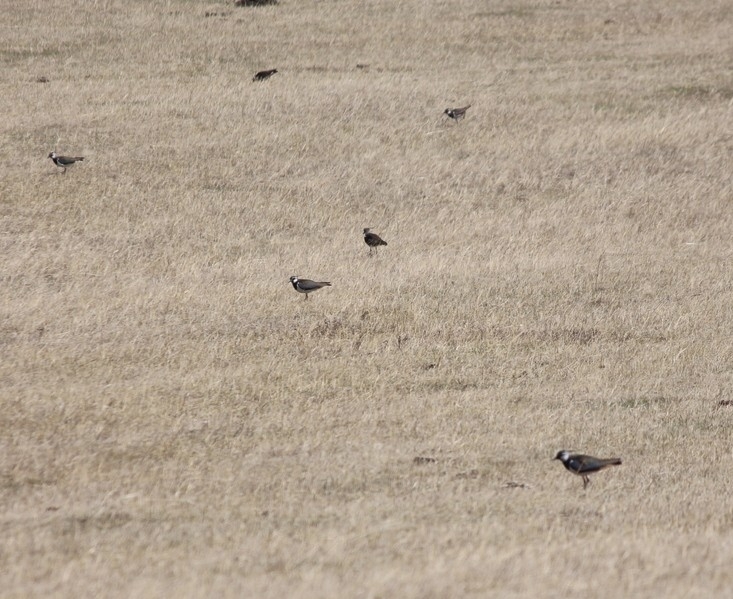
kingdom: Animalia
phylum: Chordata
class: Aves
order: Charadriiformes
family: Charadriidae
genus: Vanellus
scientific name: Vanellus vanellus
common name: Northern lapwing
